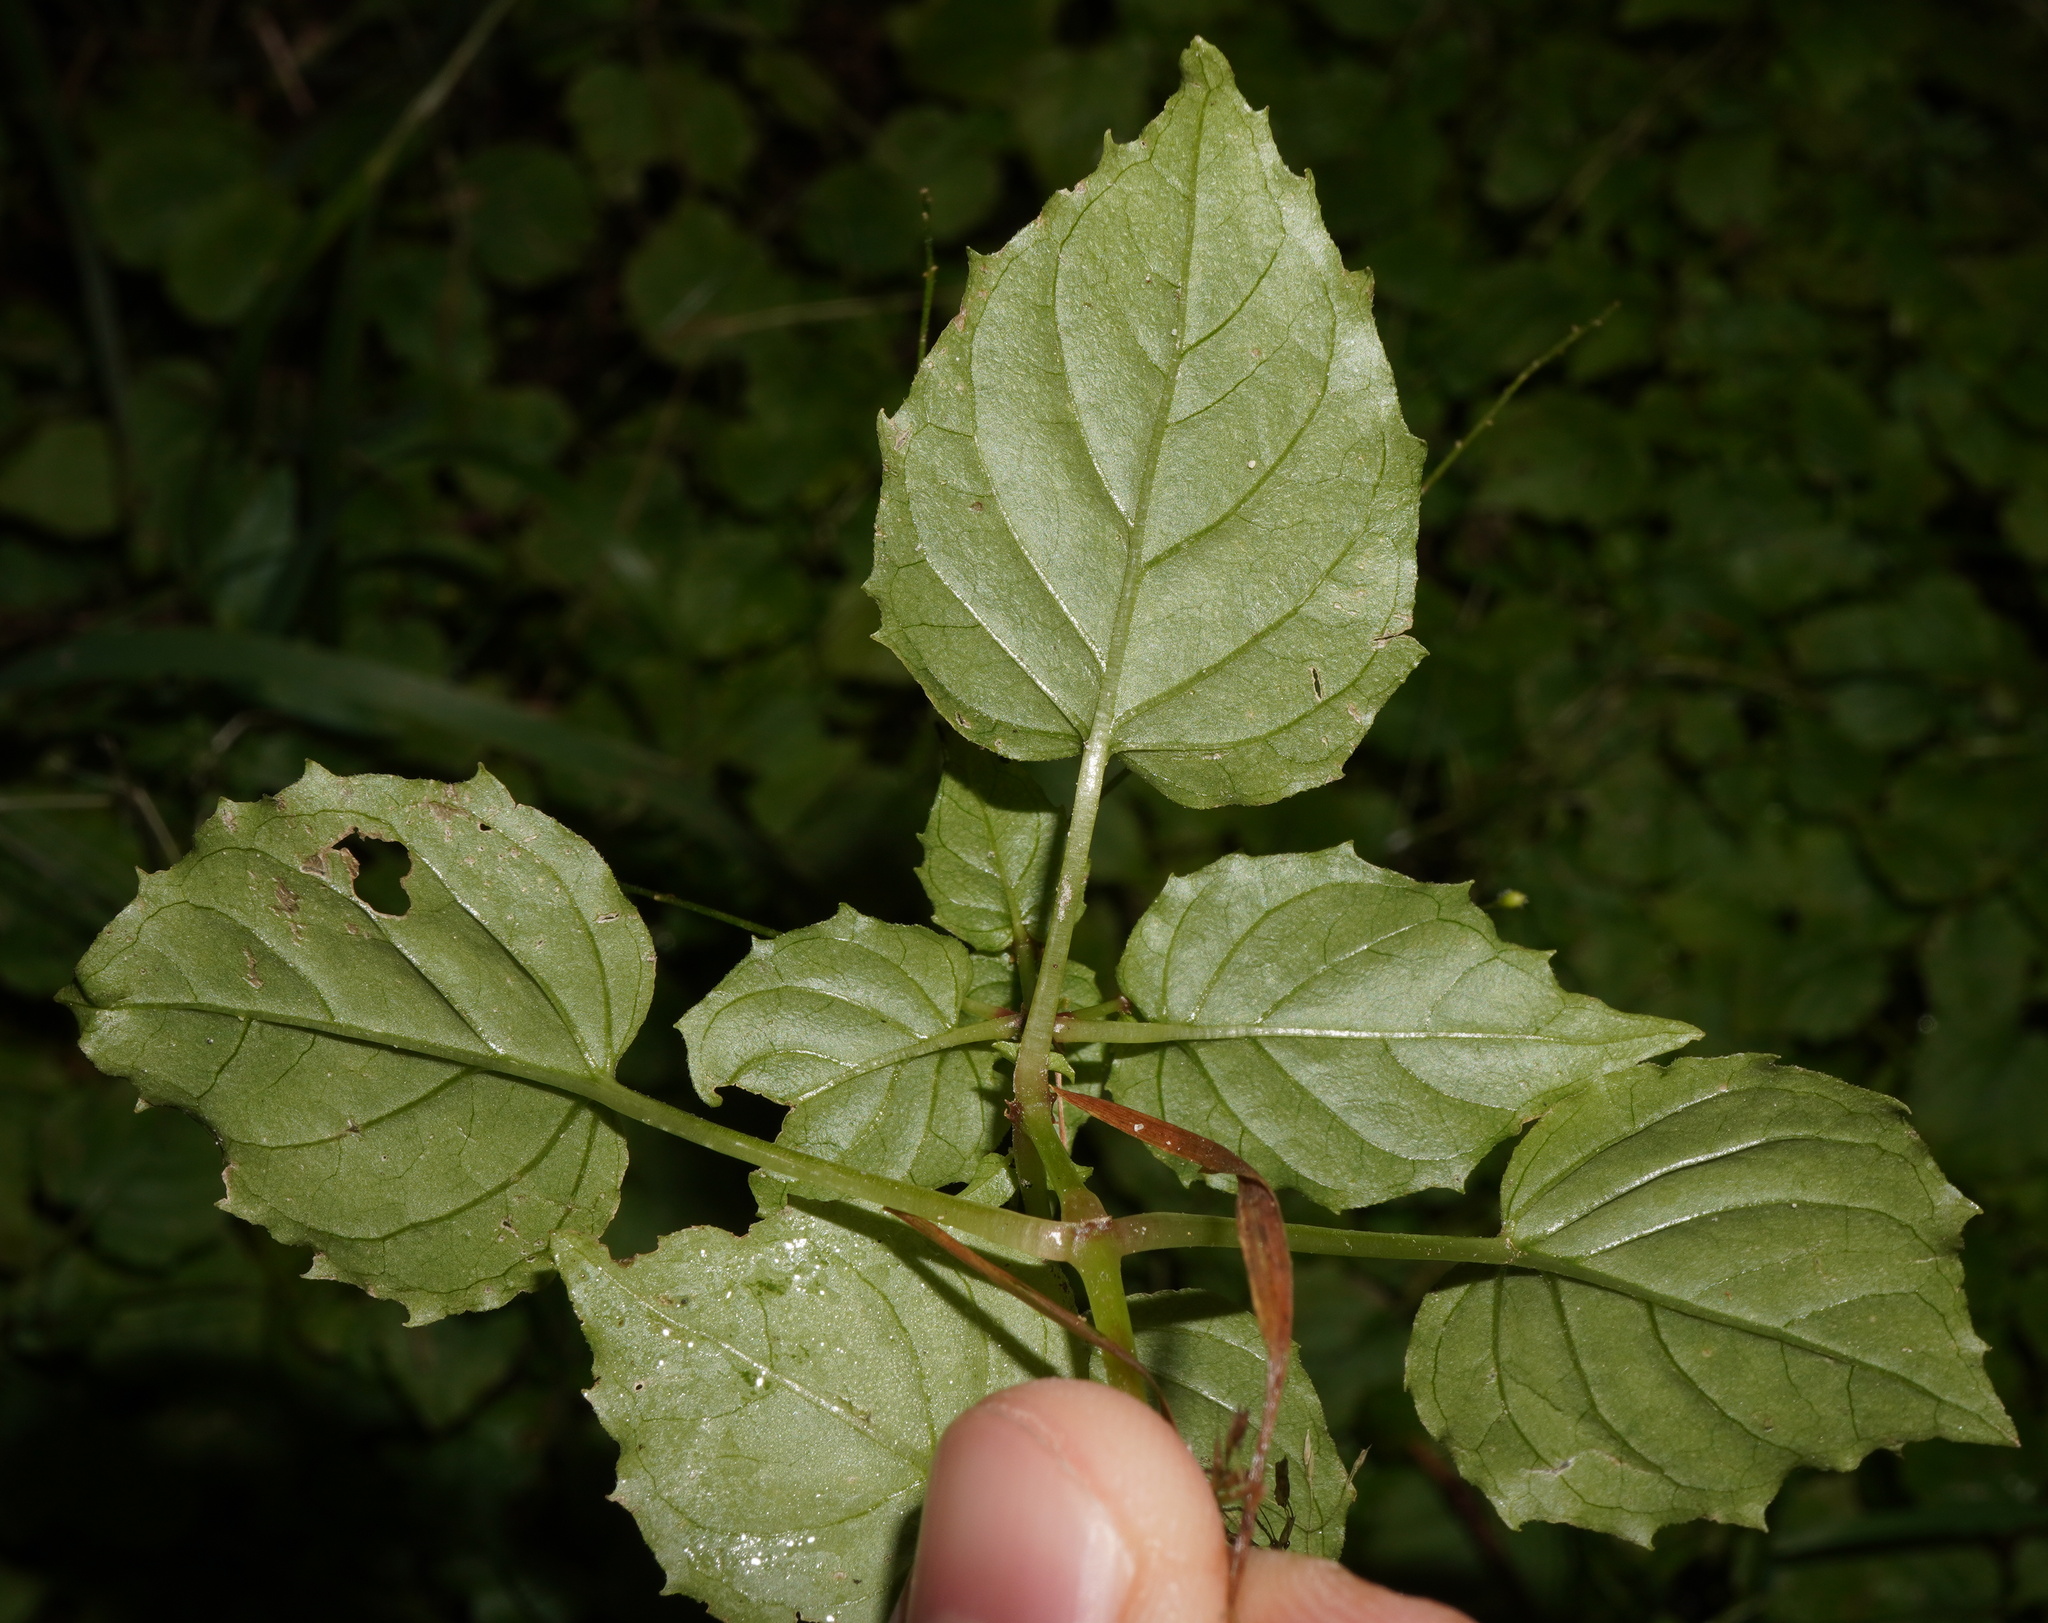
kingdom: Plantae
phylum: Tracheophyta
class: Magnoliopsida
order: Myrtales
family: Onagraceae
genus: Circaea
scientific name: Circaea intermedia
